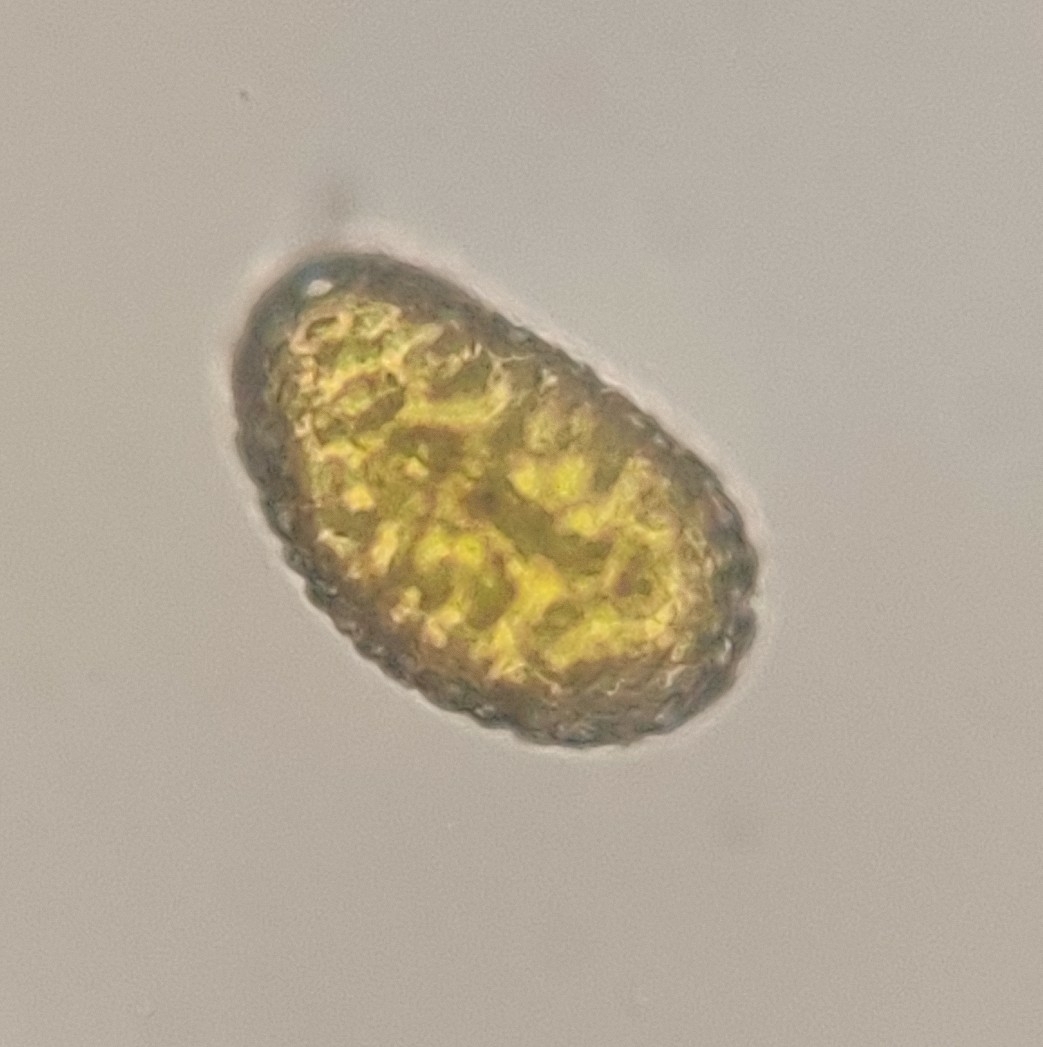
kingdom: Plantae
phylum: Tracheophyta
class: Polypodiopsida
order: Polypodiales
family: Polypodiaceae
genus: Polypodium
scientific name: Polypodium vulgare
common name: Common polypody
